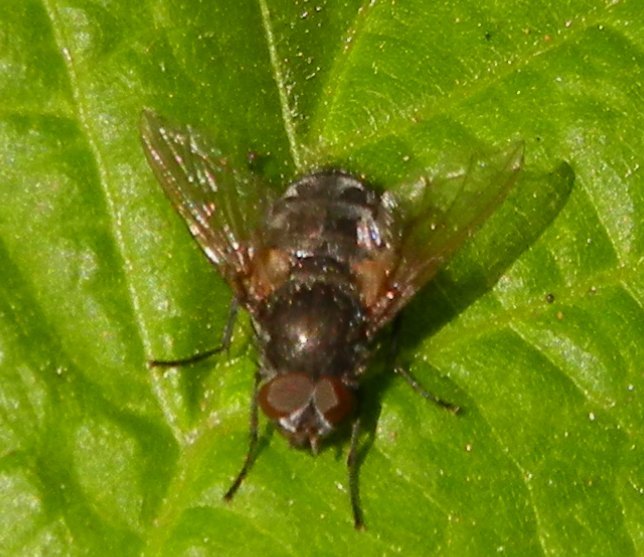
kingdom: Animalia
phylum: Arthropoda
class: Insecta
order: Diptera
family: Polleniidae
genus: Pollenia
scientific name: Pollenia
